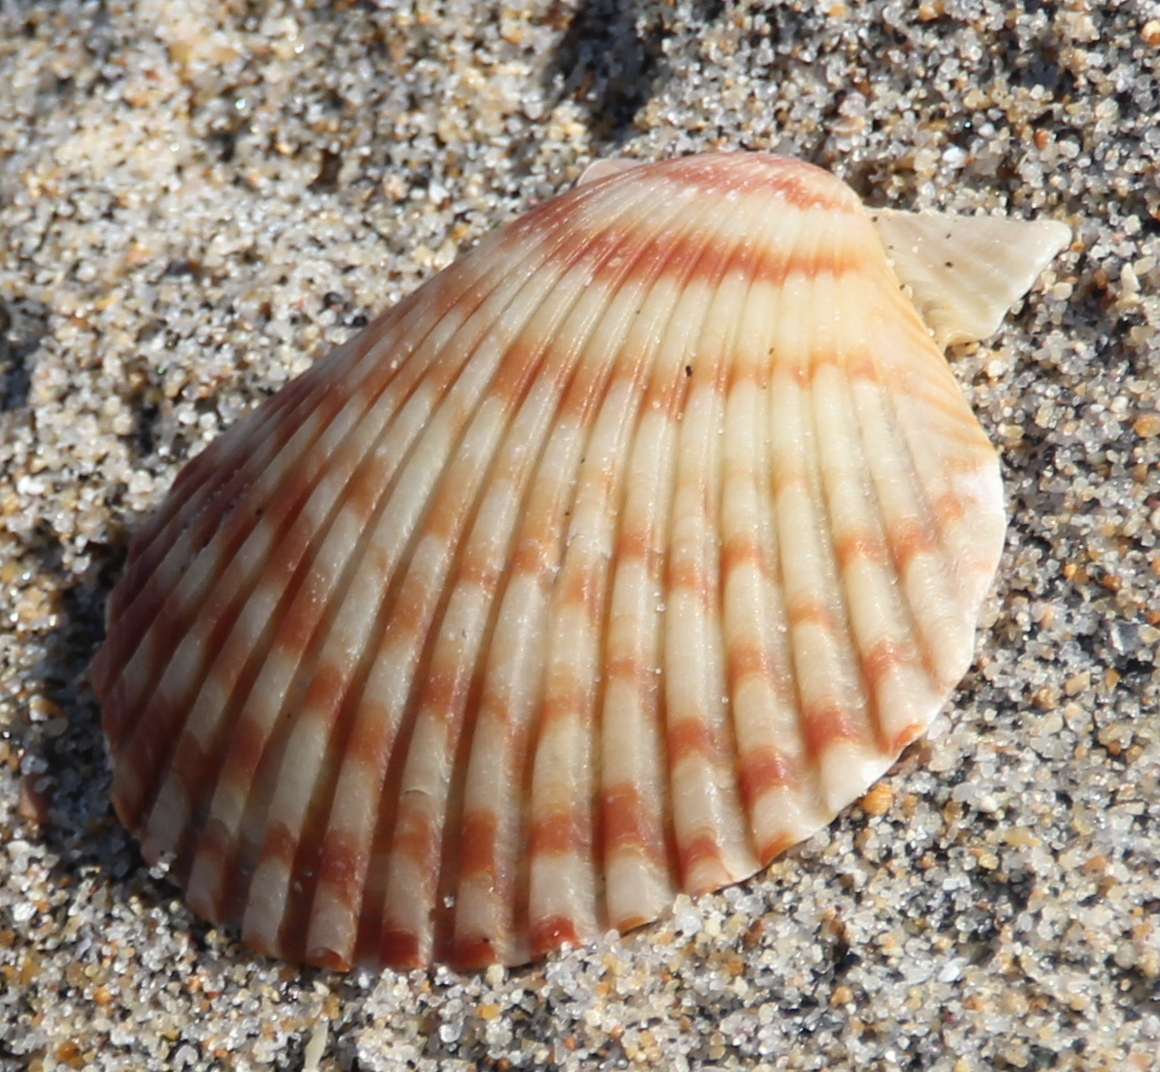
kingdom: Animalia
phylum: Mollusca
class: Bivalvia
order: Pectinida
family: Pectinidae
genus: Argopecten
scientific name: Argopecten ventricosus
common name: Catarina scallop
